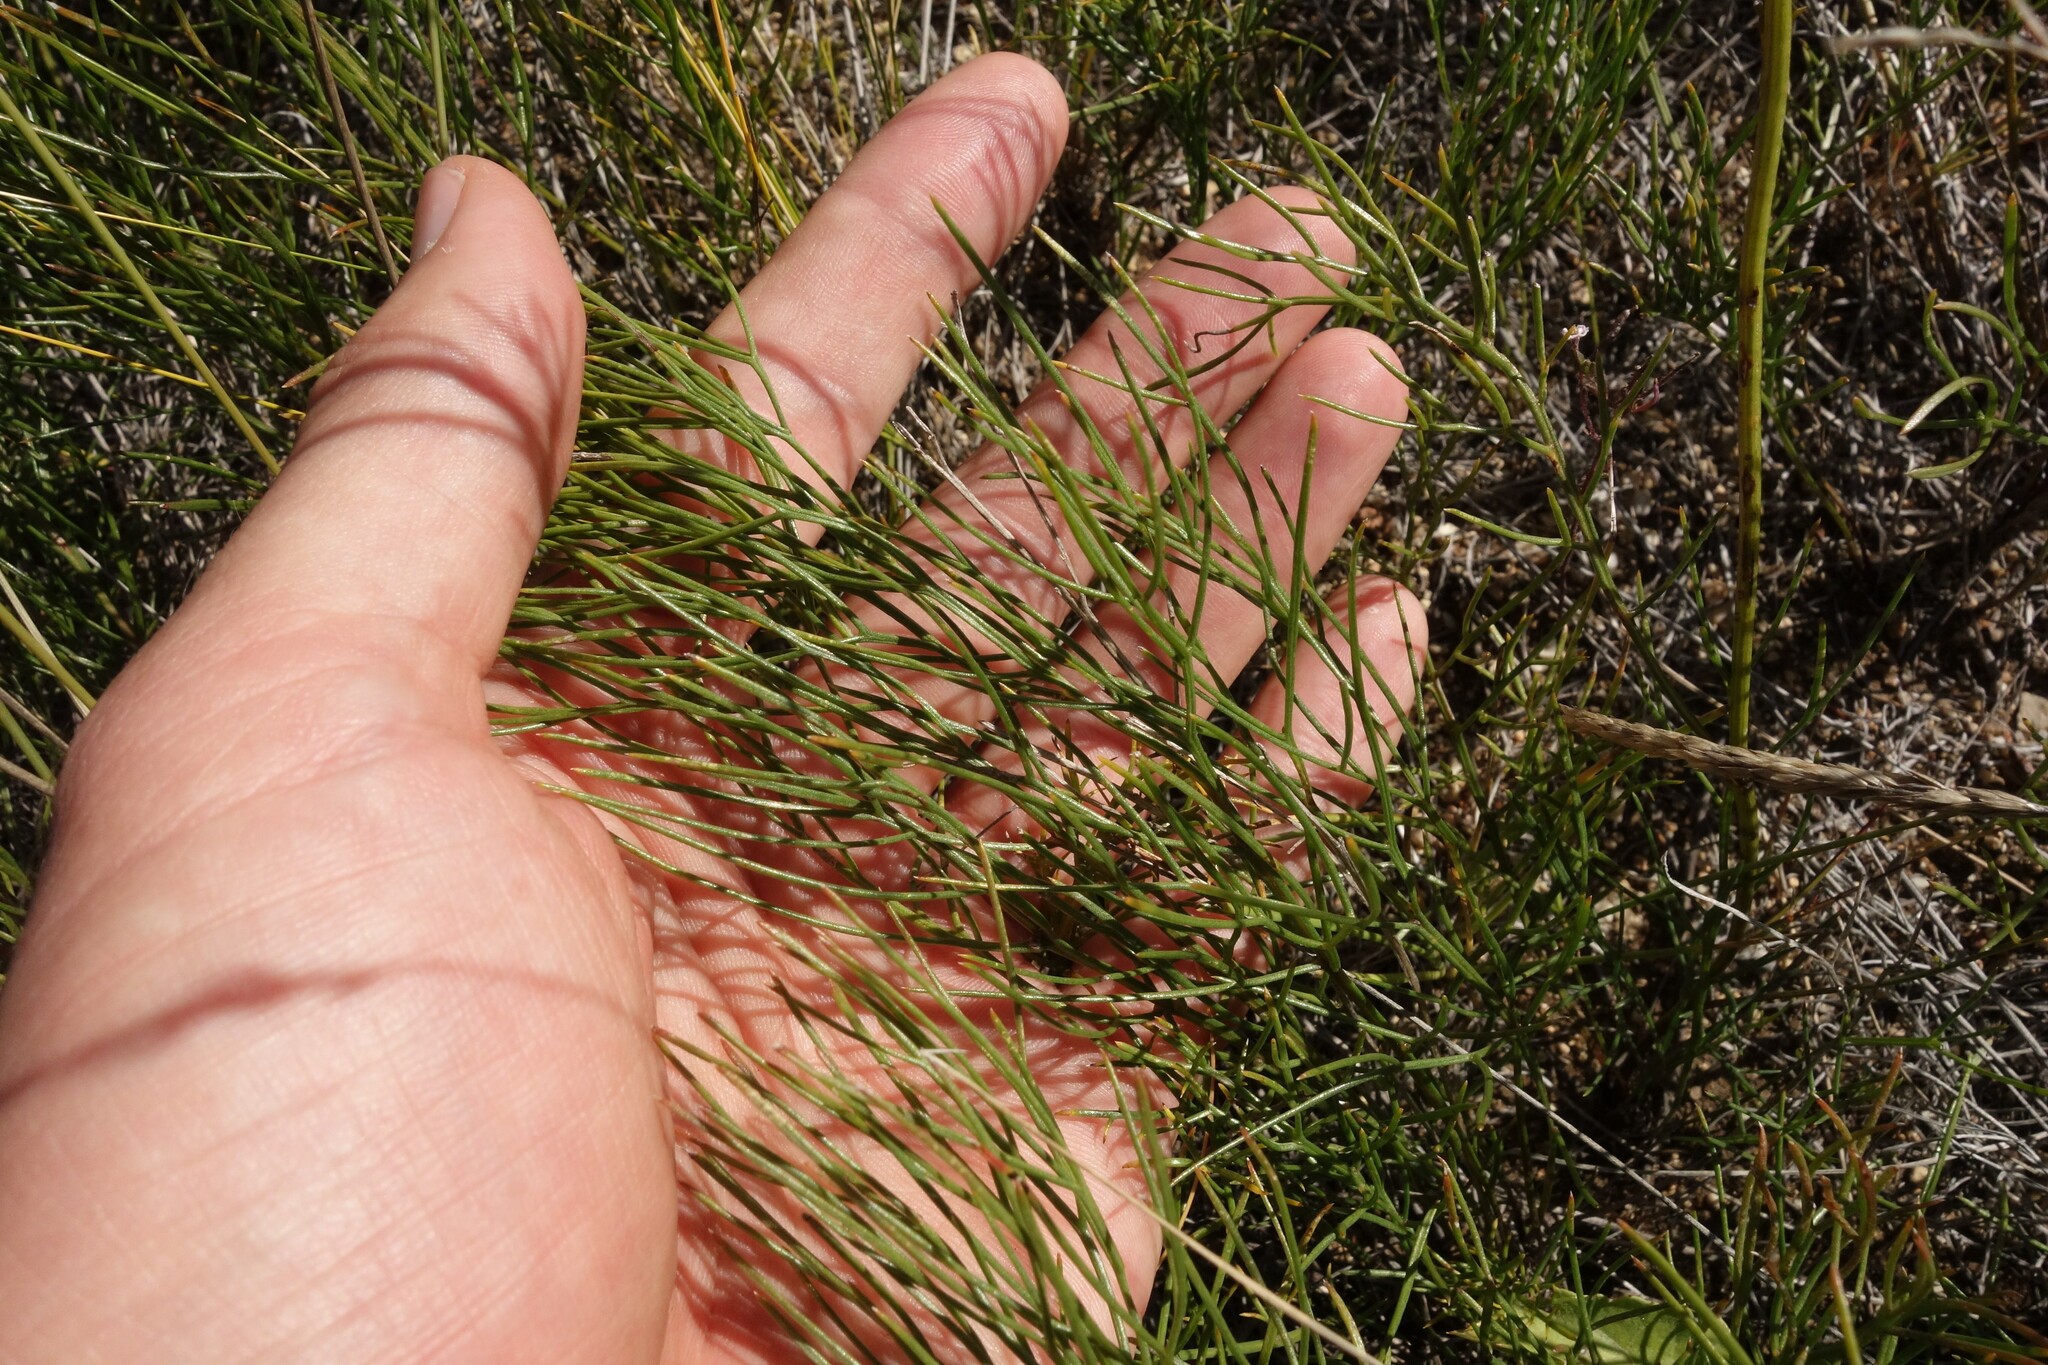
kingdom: Plantae
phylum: Tracheophyta
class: Magnoliopsida
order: Asterales
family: Asteraceae
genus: Filifolium
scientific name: Filifolium sibiricum
